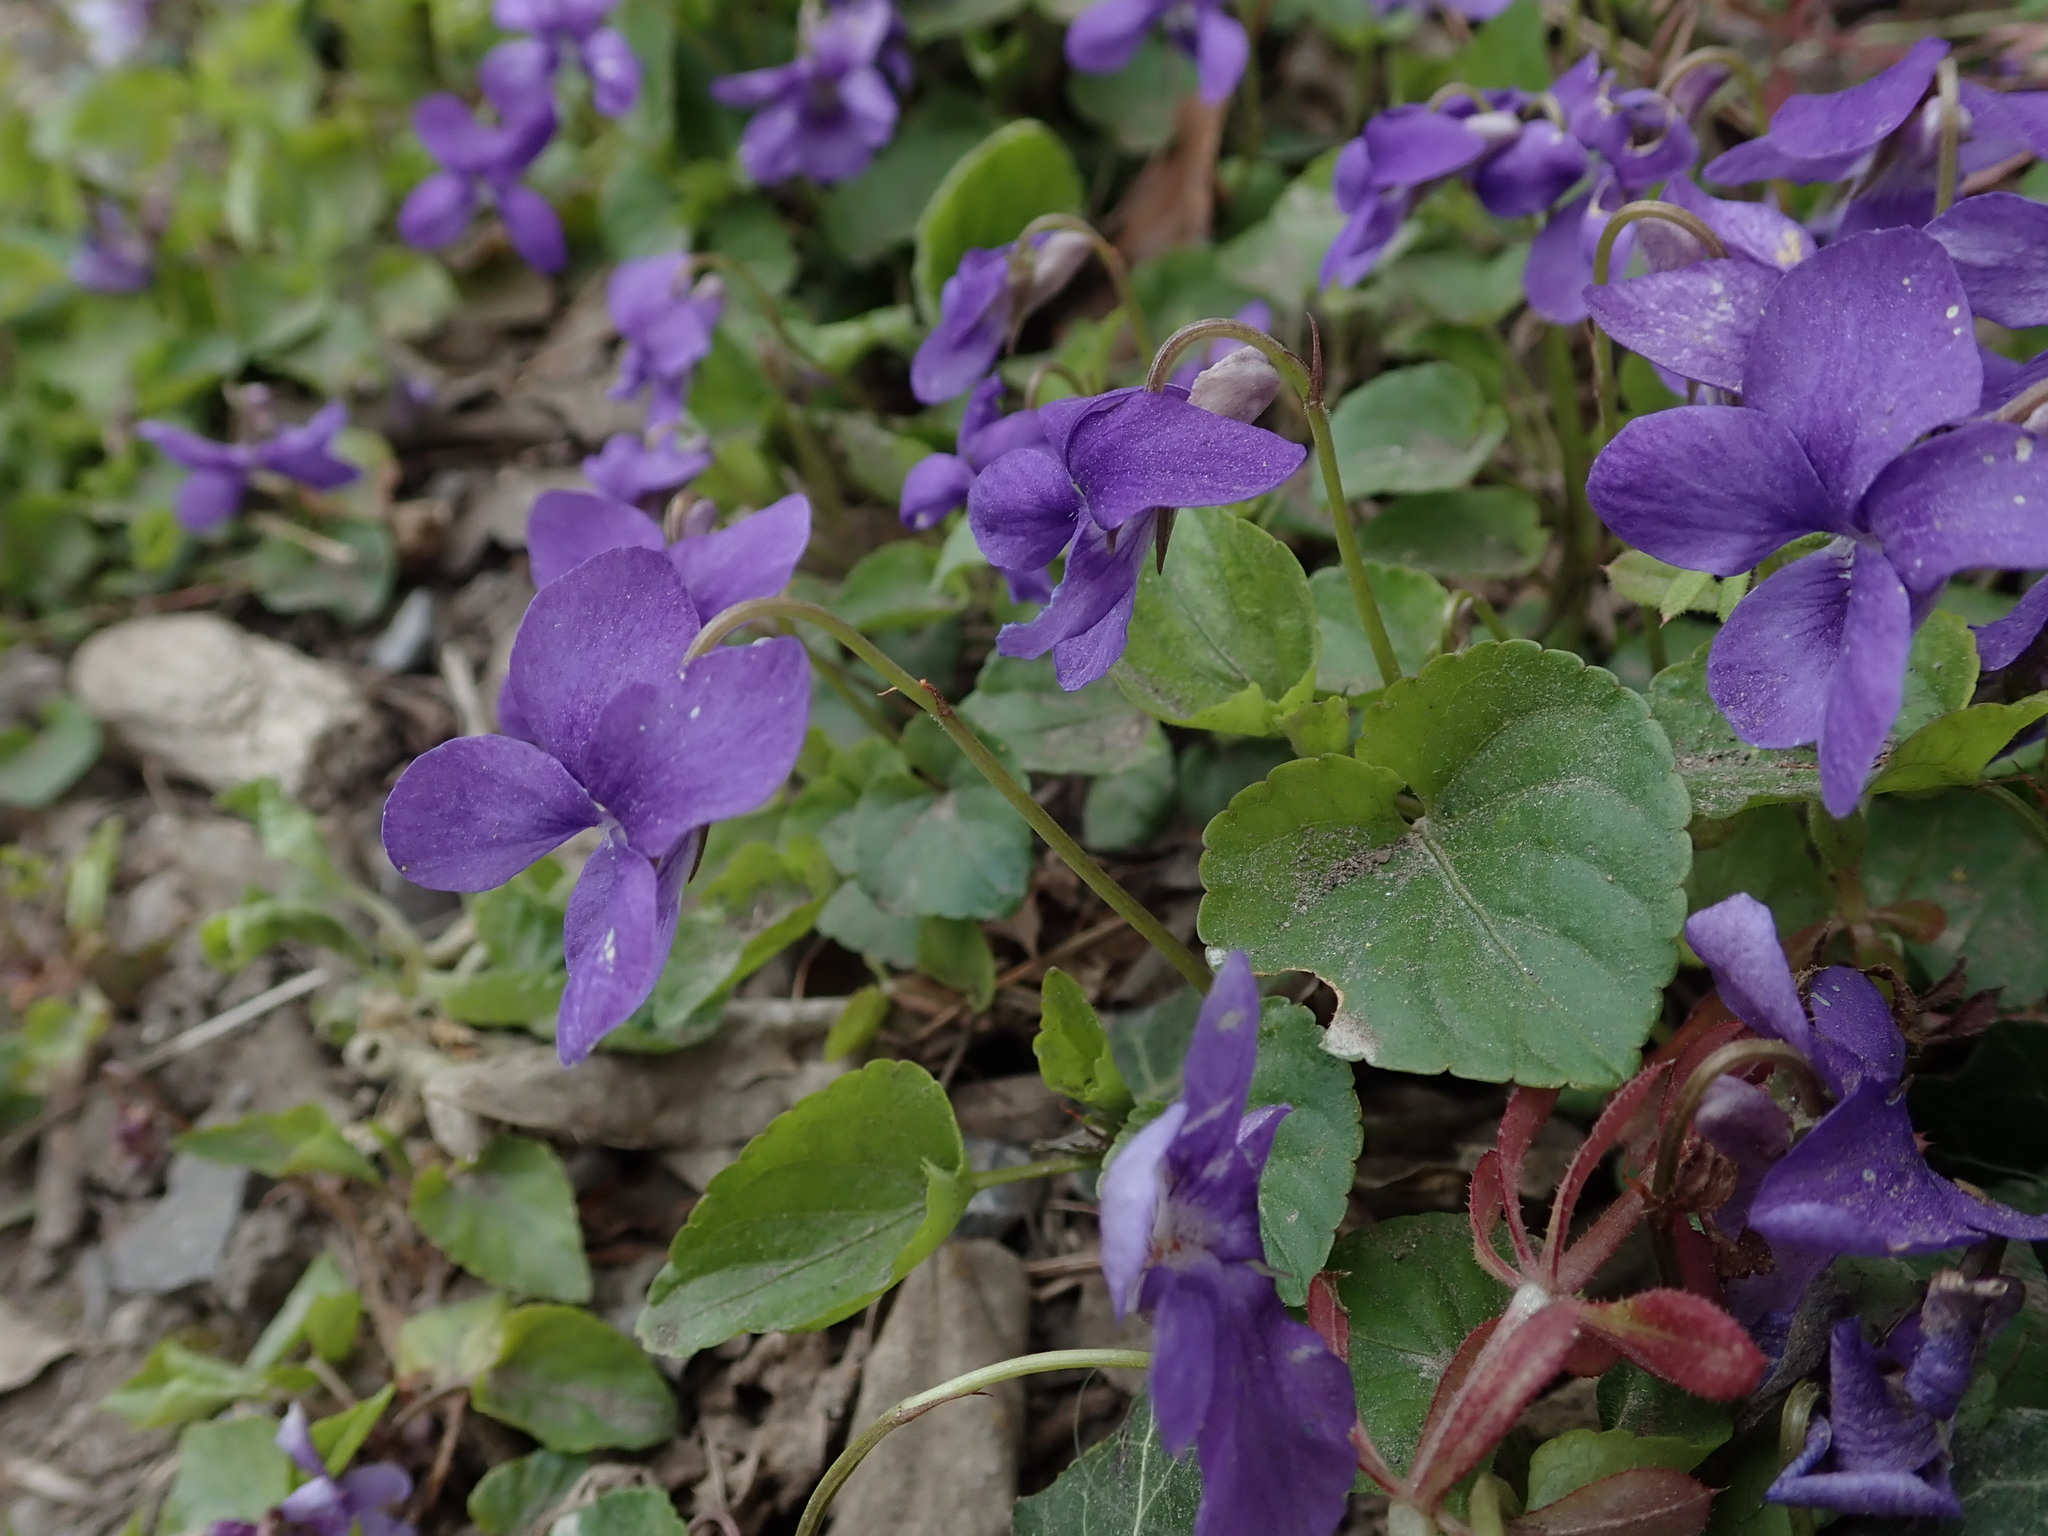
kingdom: Plantae
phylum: Tracheophyta
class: Magnoliopsida
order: Malpighiales
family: Violaceae
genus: Viola
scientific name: Viola riviniana
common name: Common dog-violet
